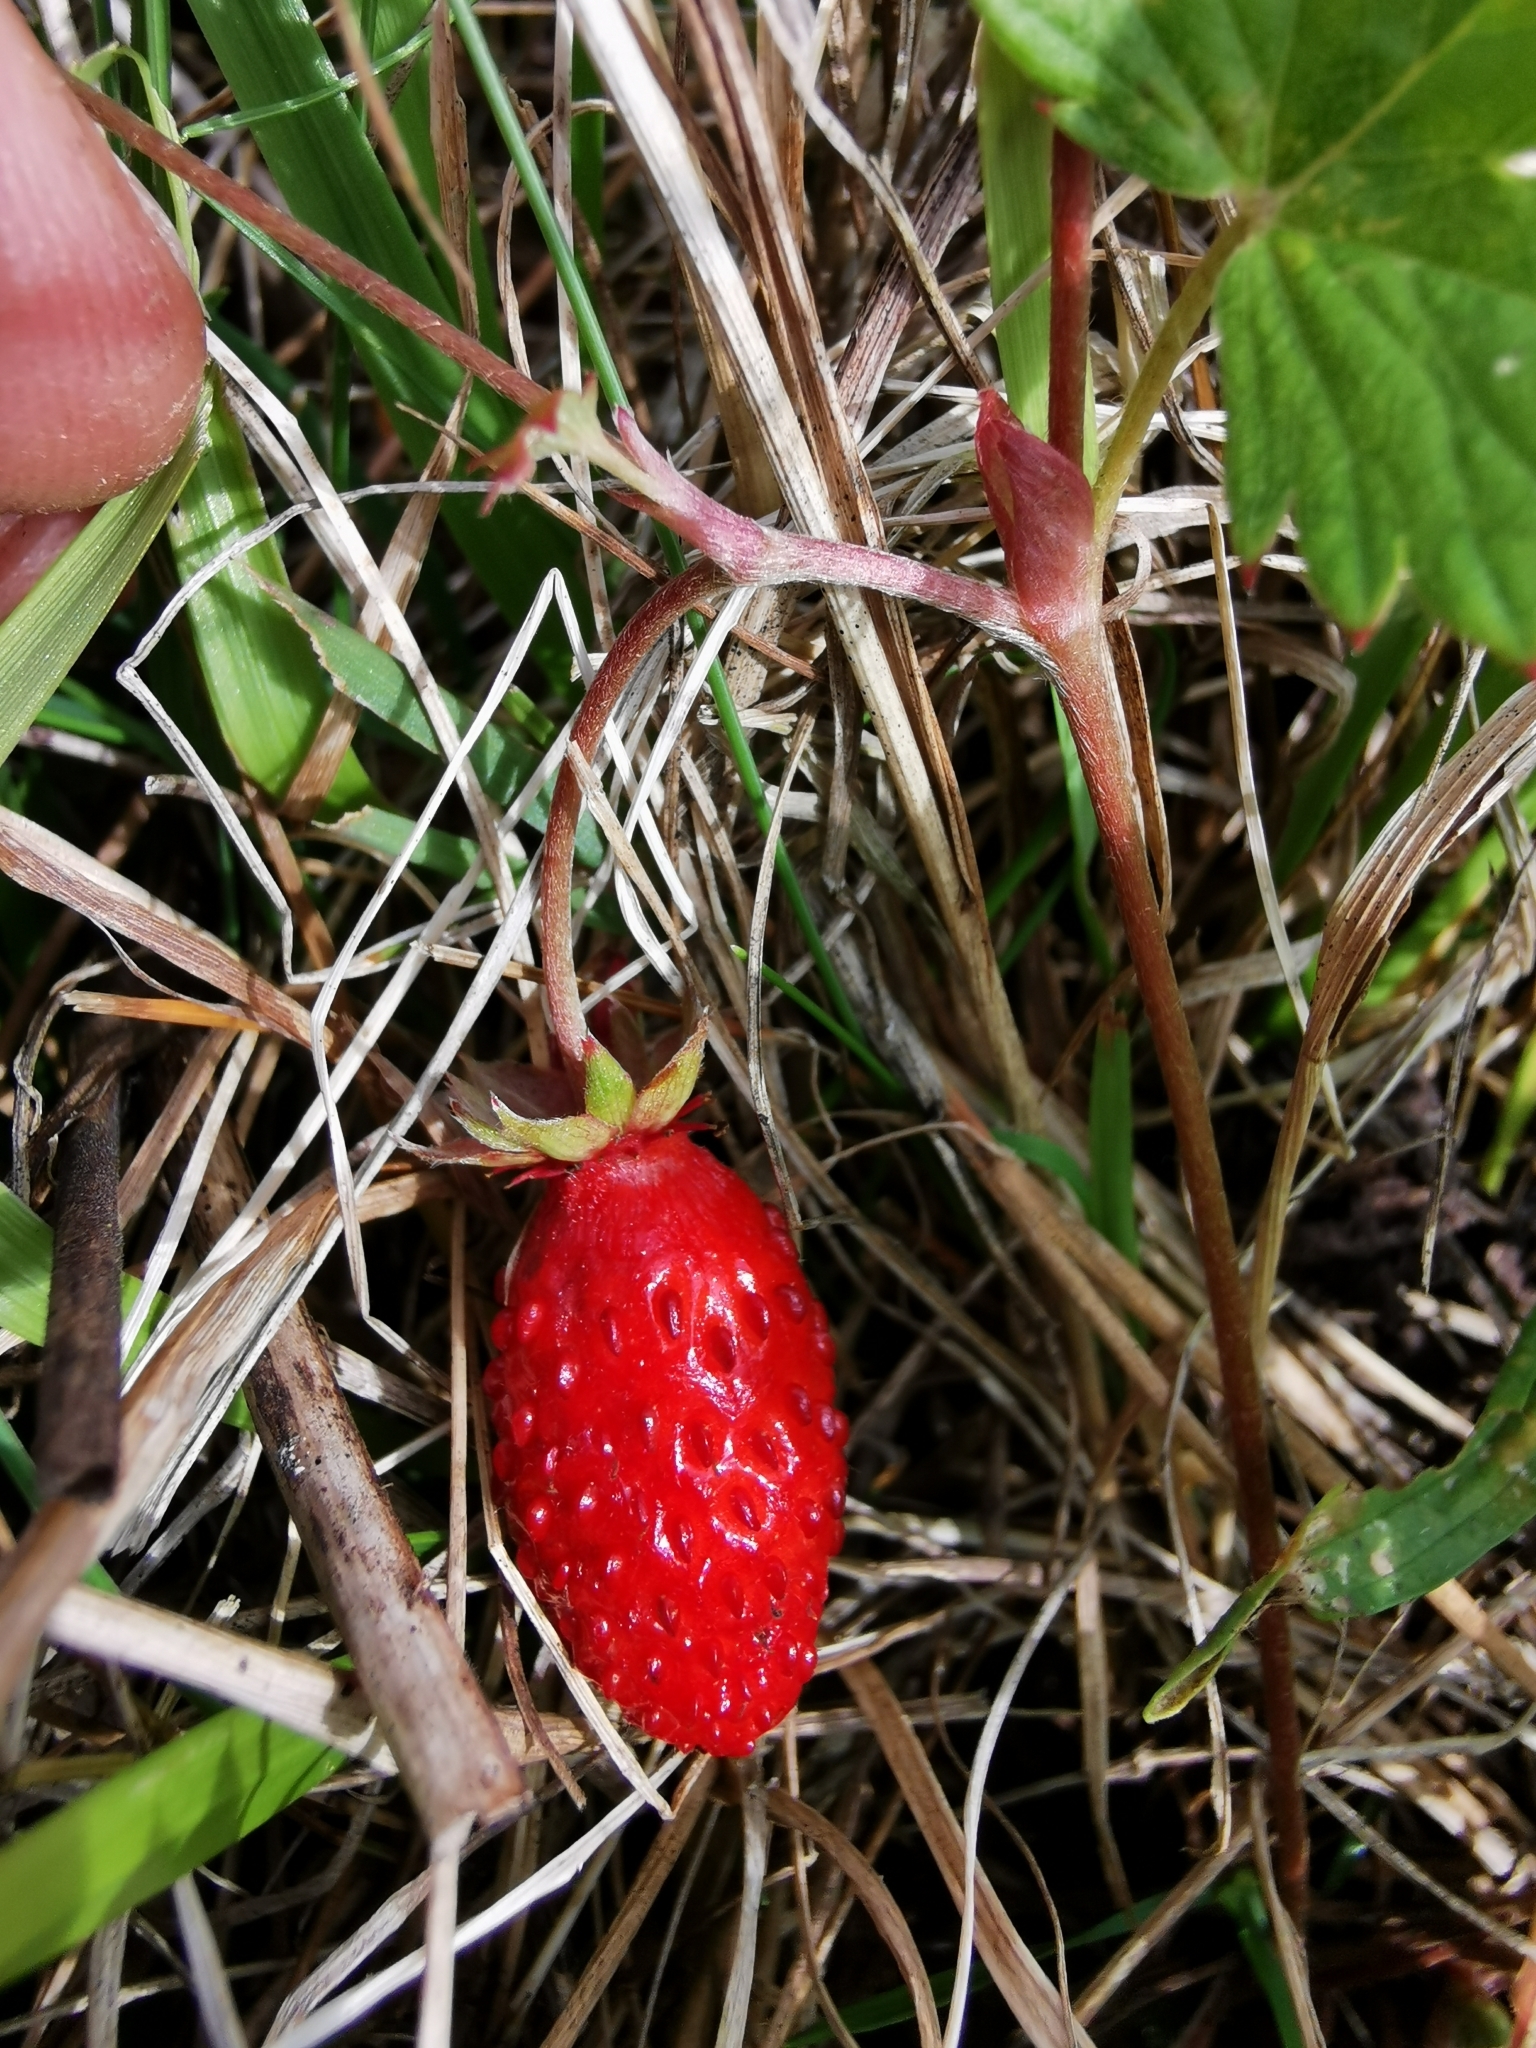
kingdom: Plantae
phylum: Tracheophyta
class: Magnoliopsida
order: Rosales
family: Rosaceae
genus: Fragaria
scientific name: Fragaria vesca
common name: Wild strawberry
